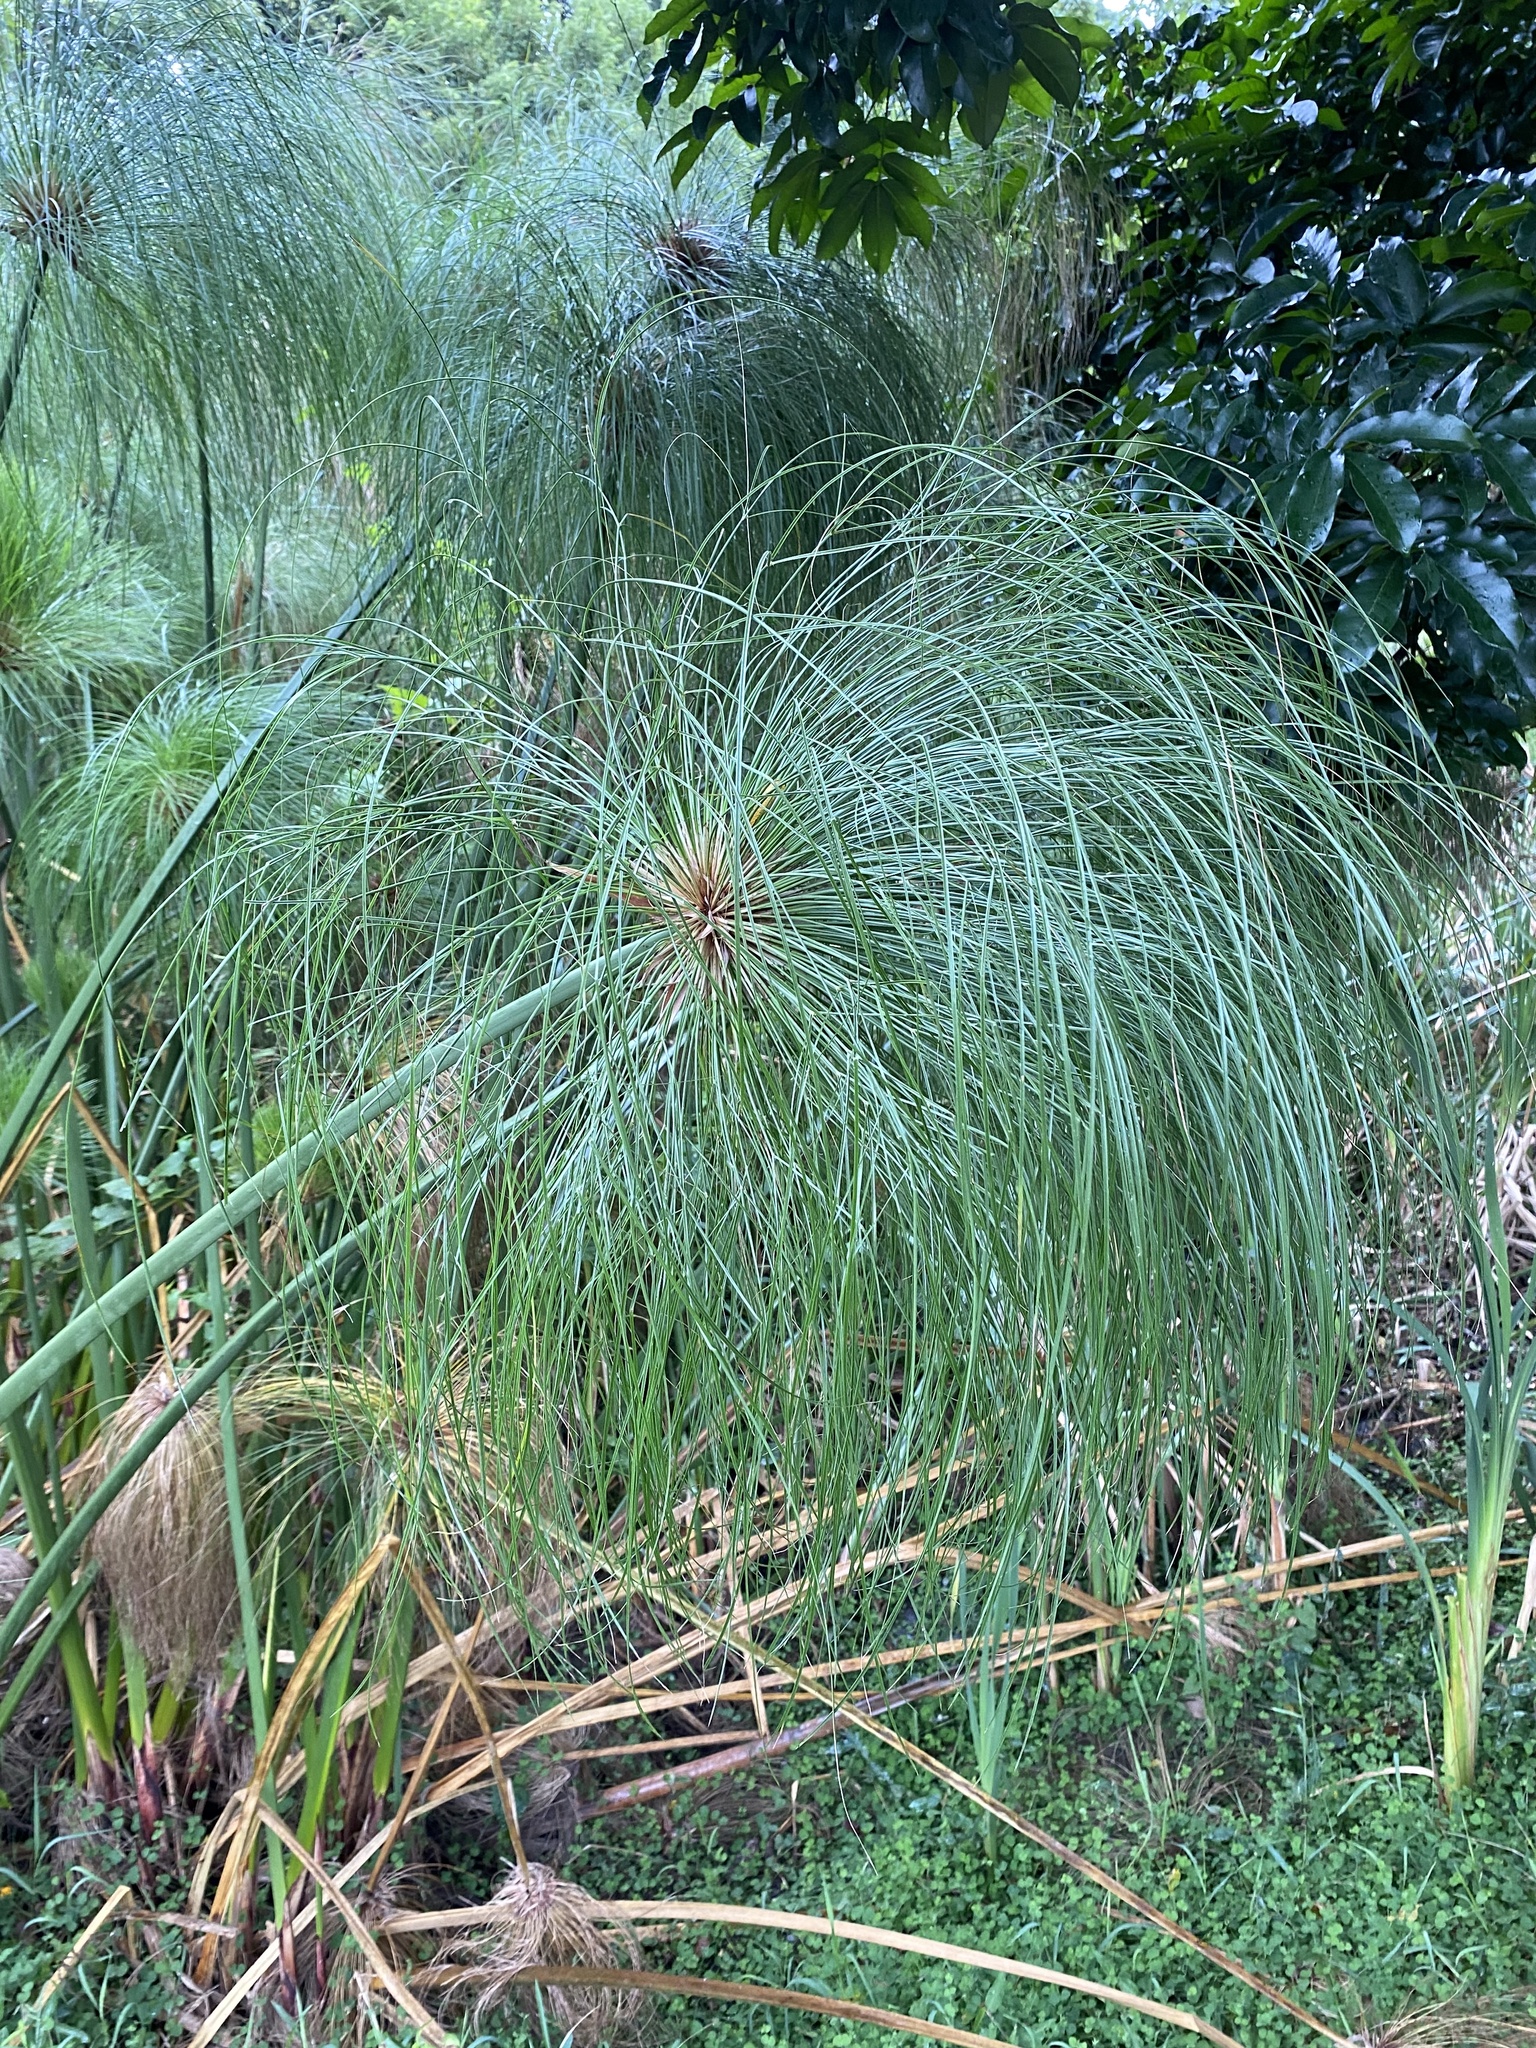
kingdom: Plantae
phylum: Tracheophyta
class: Liliopsida
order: Poales
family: Cyperaceae
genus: Cyperus
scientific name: Cyperus papyrus
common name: Papyrus
